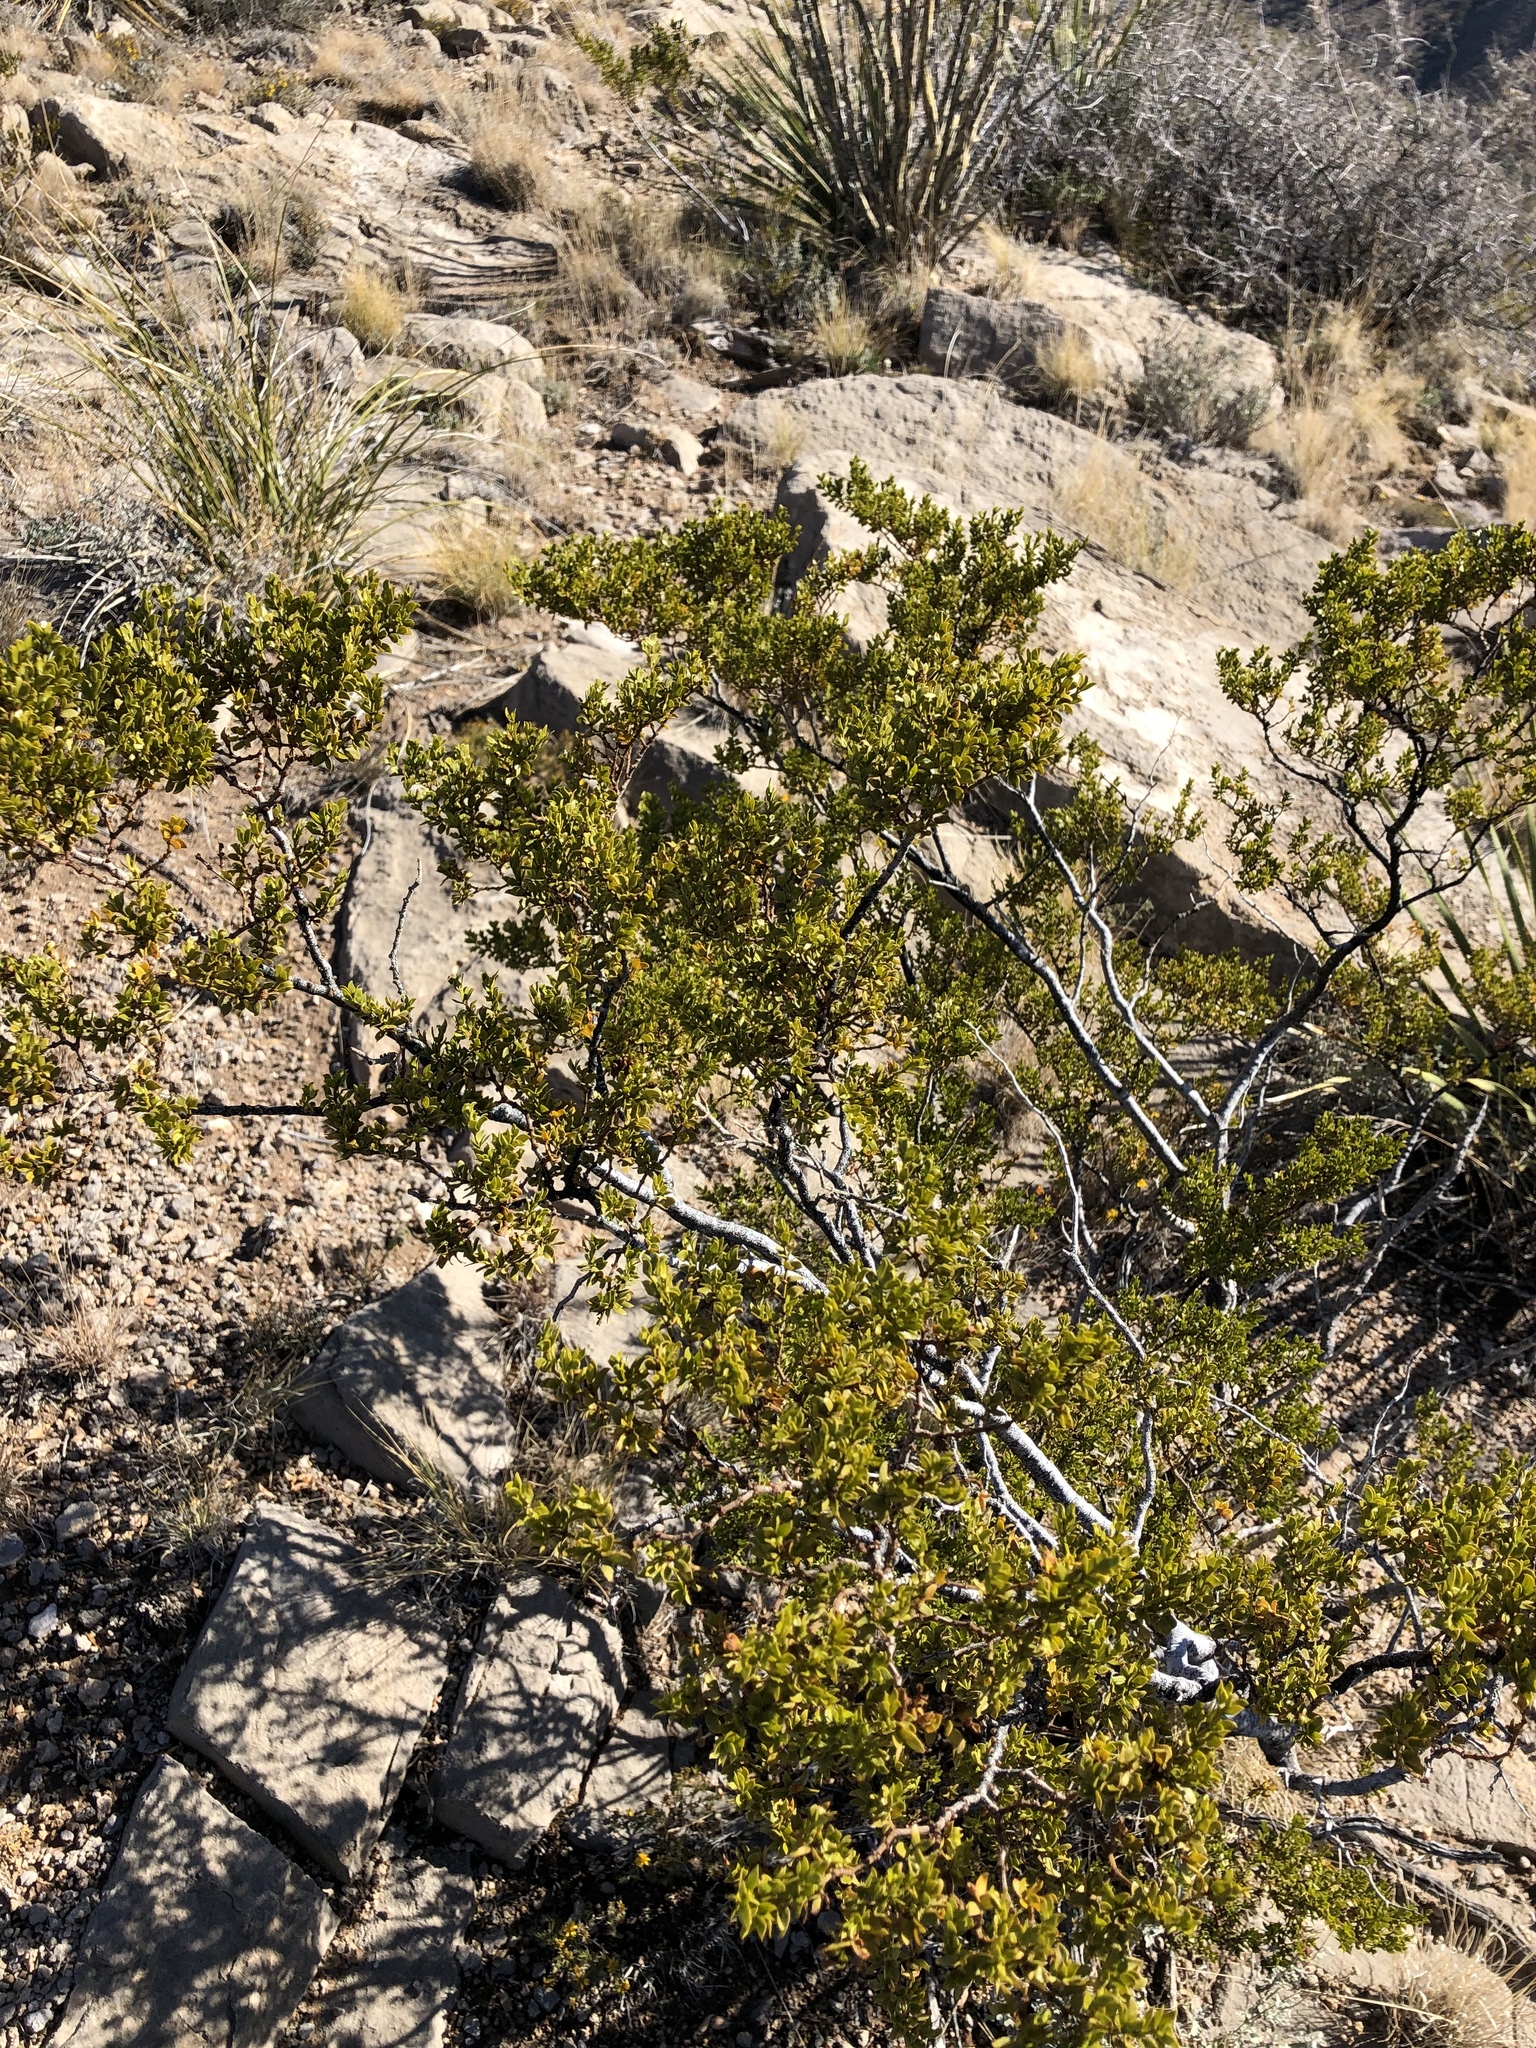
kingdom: Plantae
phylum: Tracheophyta
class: Magnoliopsida
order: Zygophyllales
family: Zygophyllaceae
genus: Larrea
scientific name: Larrea tridentata
